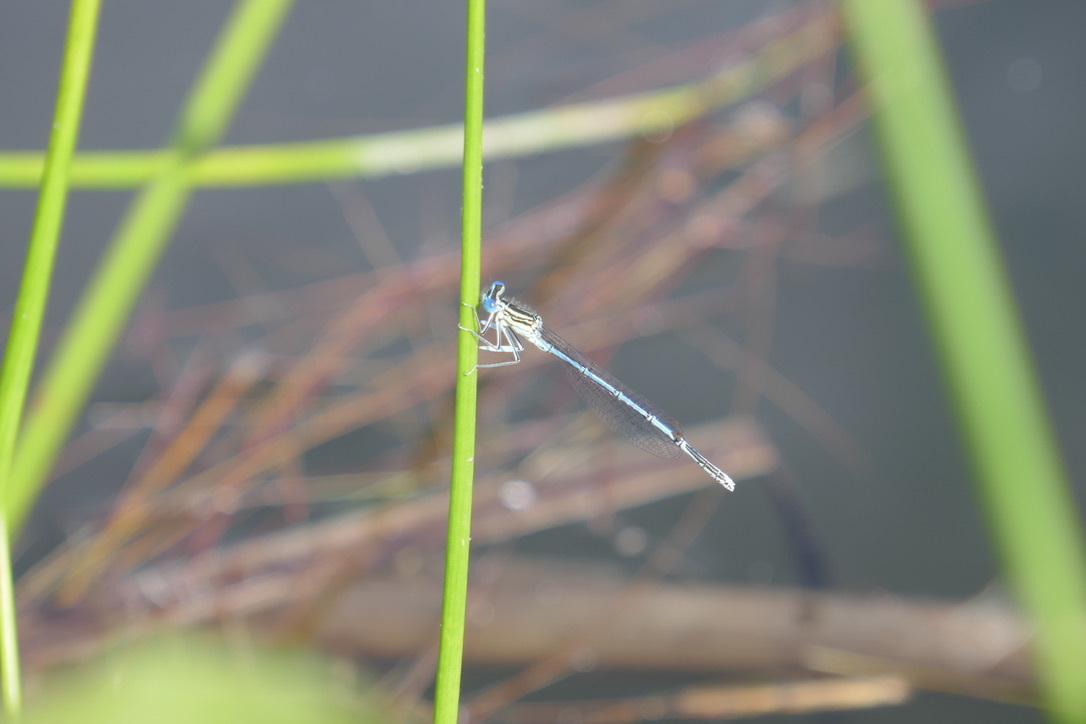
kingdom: Animalia
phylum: Arthropoda
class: Insecta
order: Odonata
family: Platycnemididae
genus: Platycnemis
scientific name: Platycnemis pennipes
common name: White-legged damselfly
